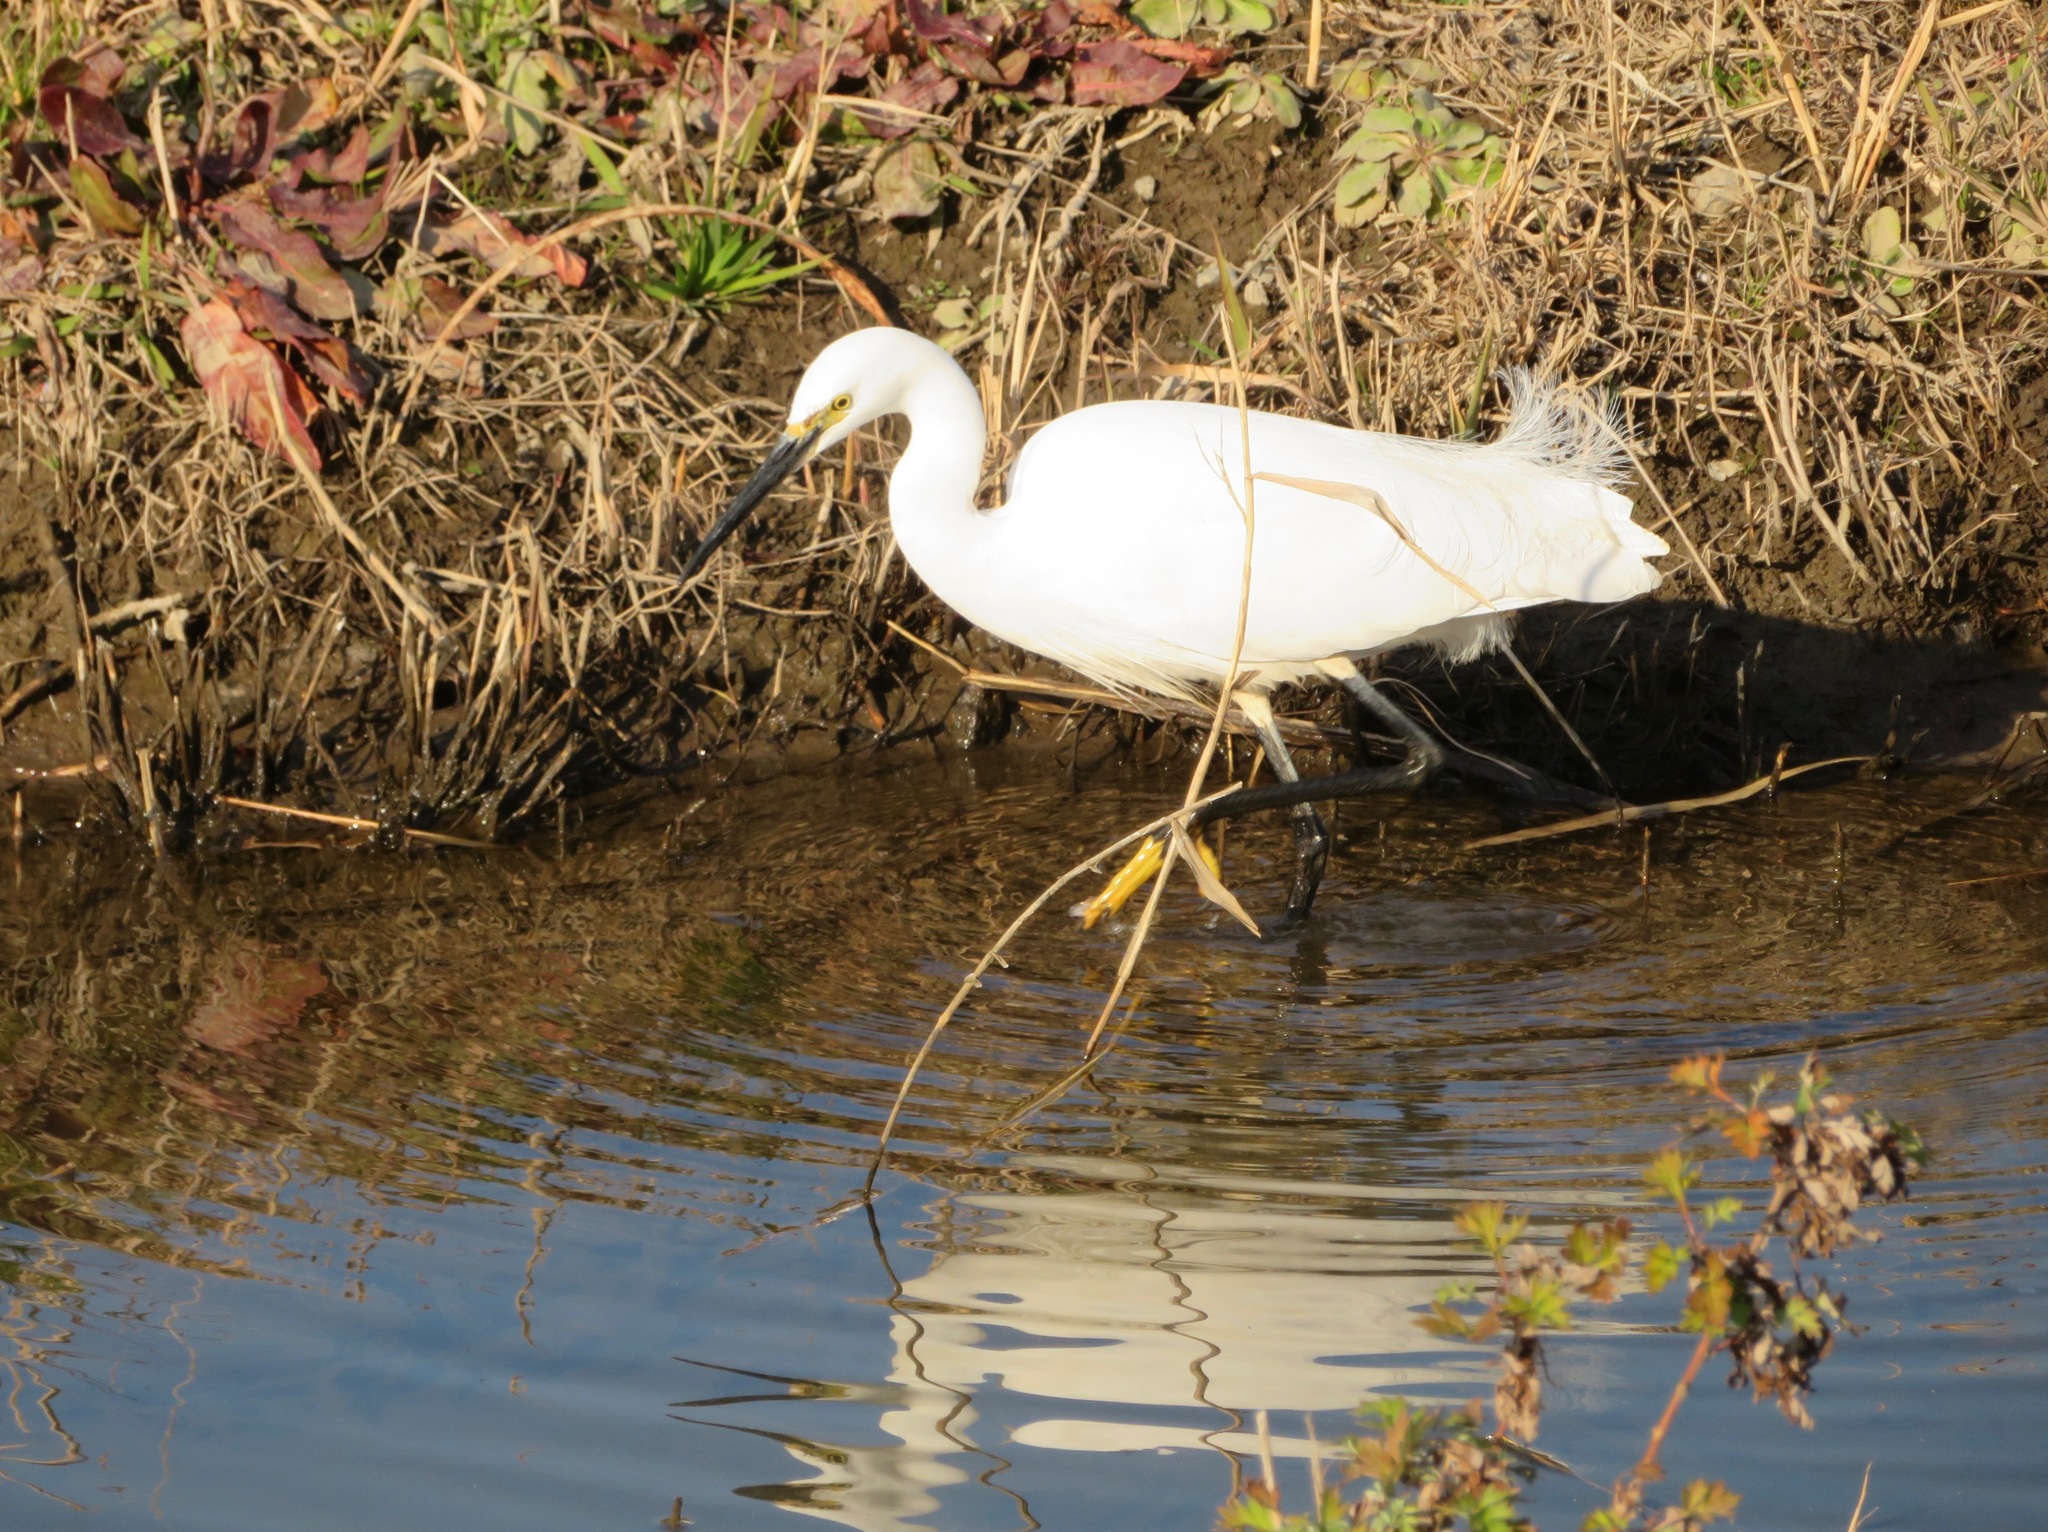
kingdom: Animalia
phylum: Chordata
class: Aves
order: Pelecaniformes
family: Ardeidae
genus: Egretta
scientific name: Egretta garzetta
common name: Little egret
